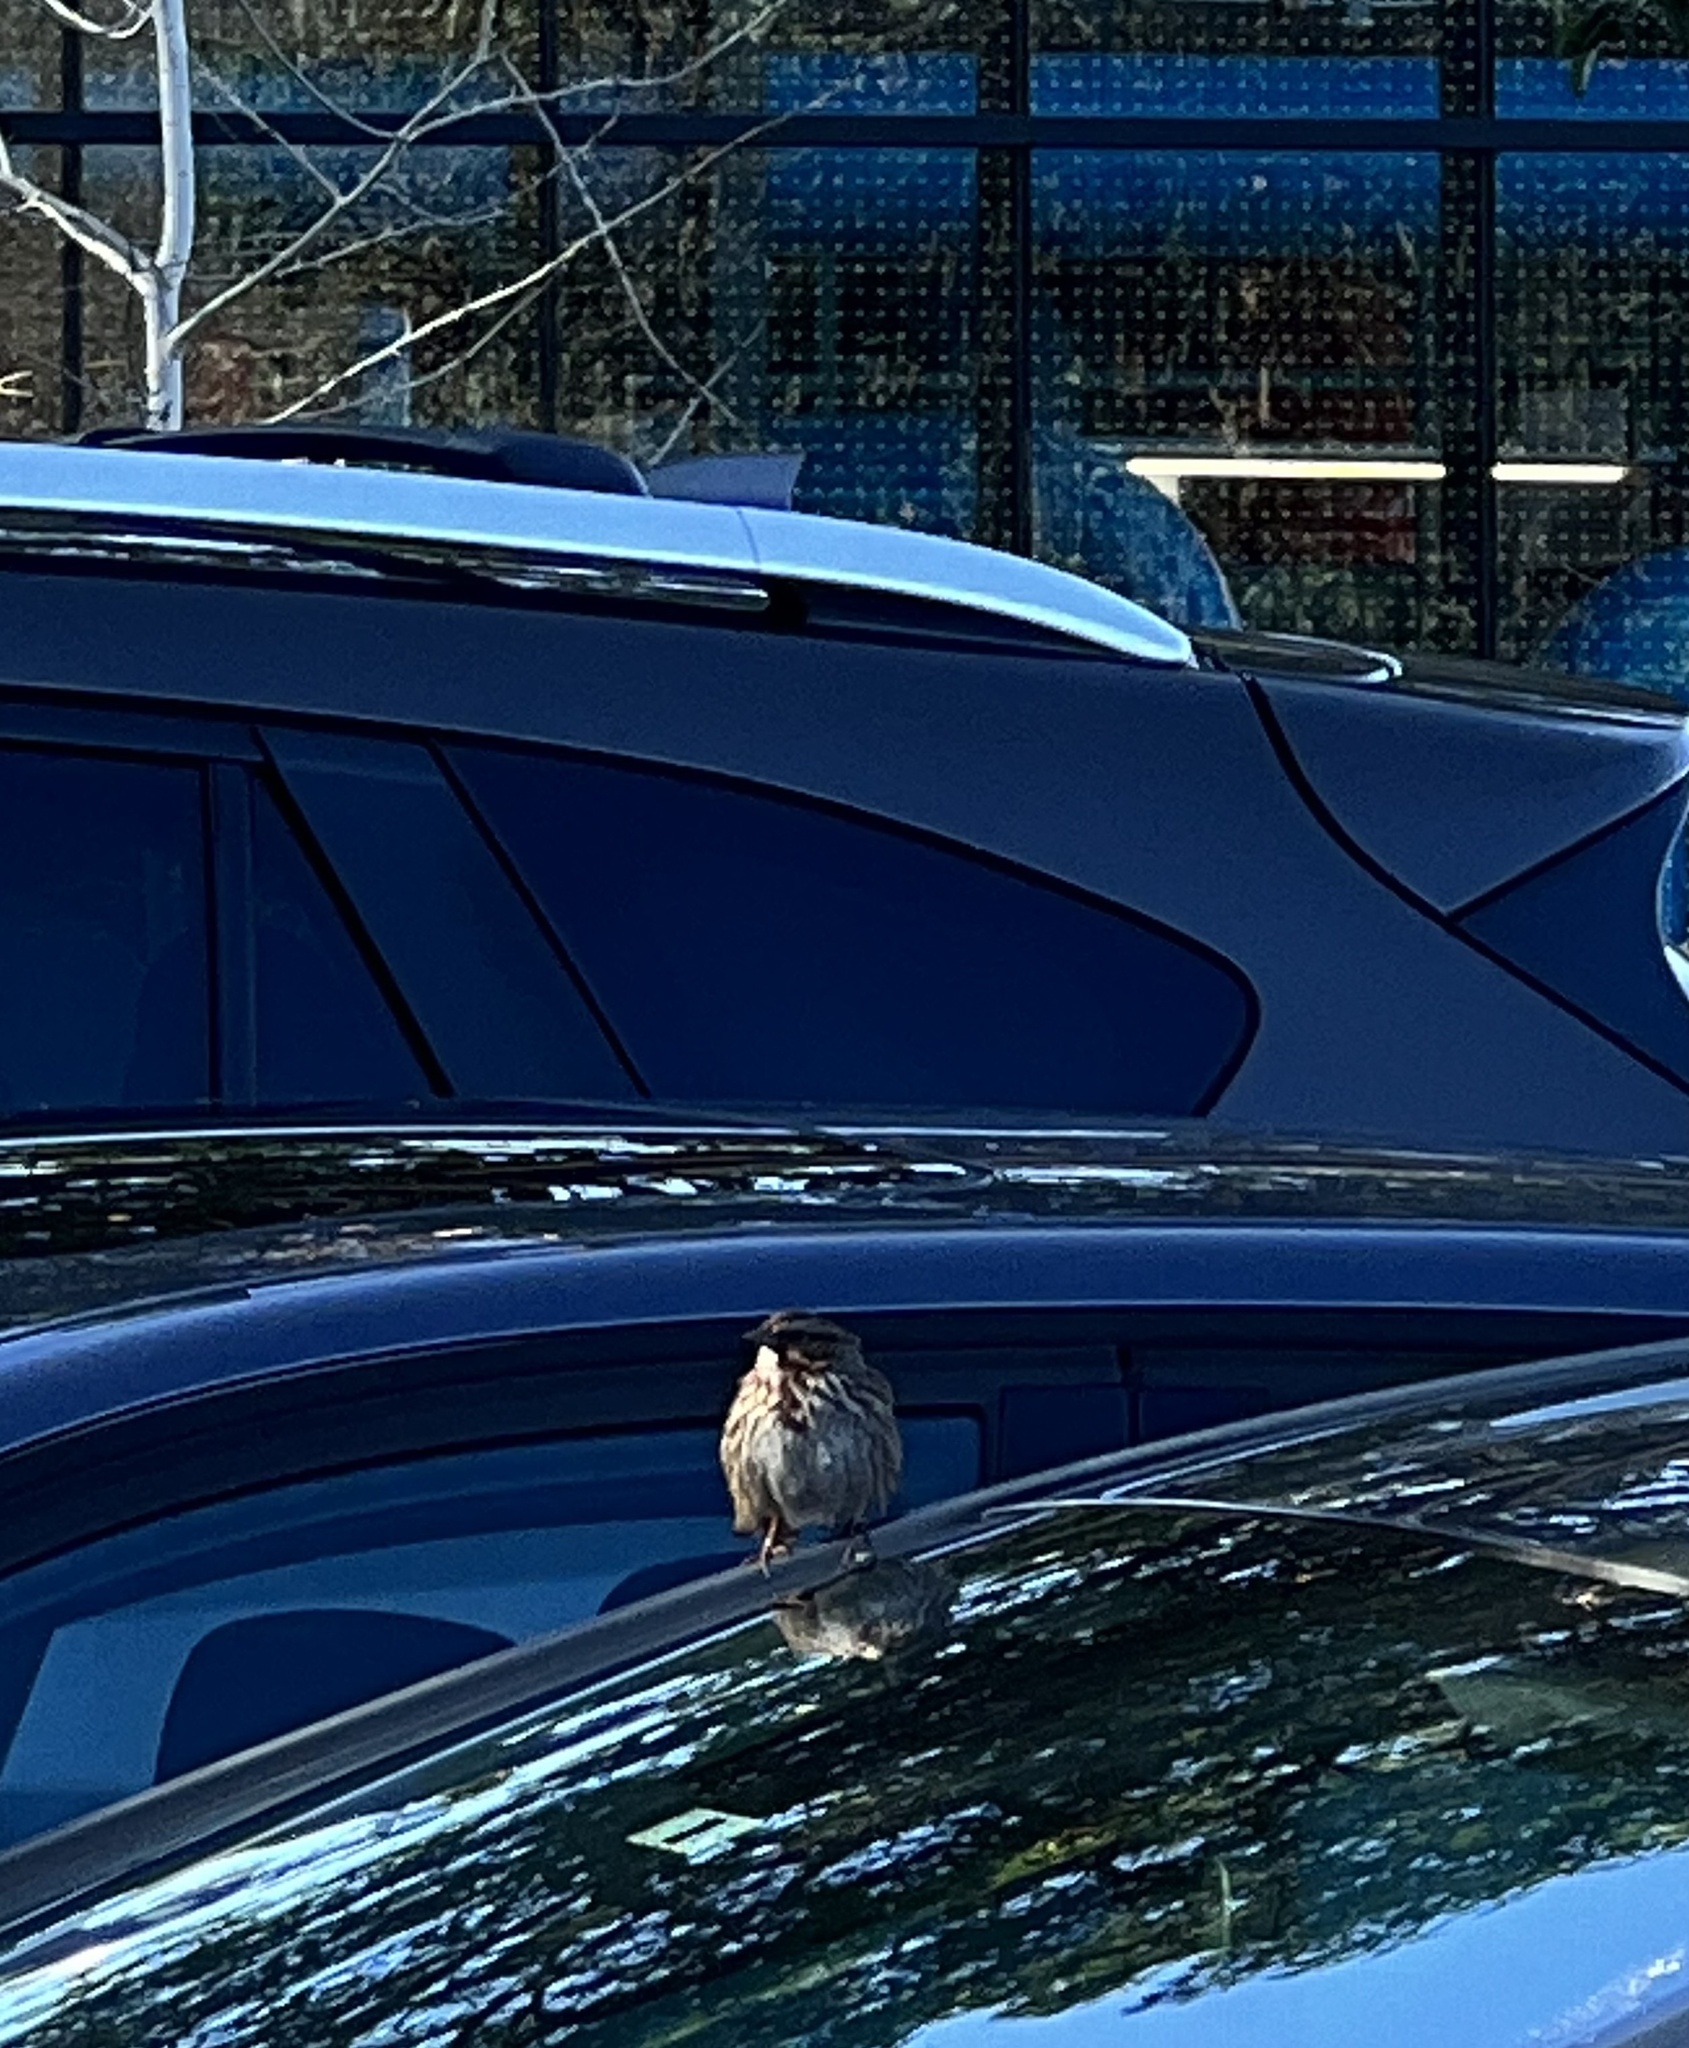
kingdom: Animalia
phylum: Chordata
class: Aves
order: Passeriformes
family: Passerellidae
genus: Melospiza
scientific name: Melospiza melodia
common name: Song sparrow
